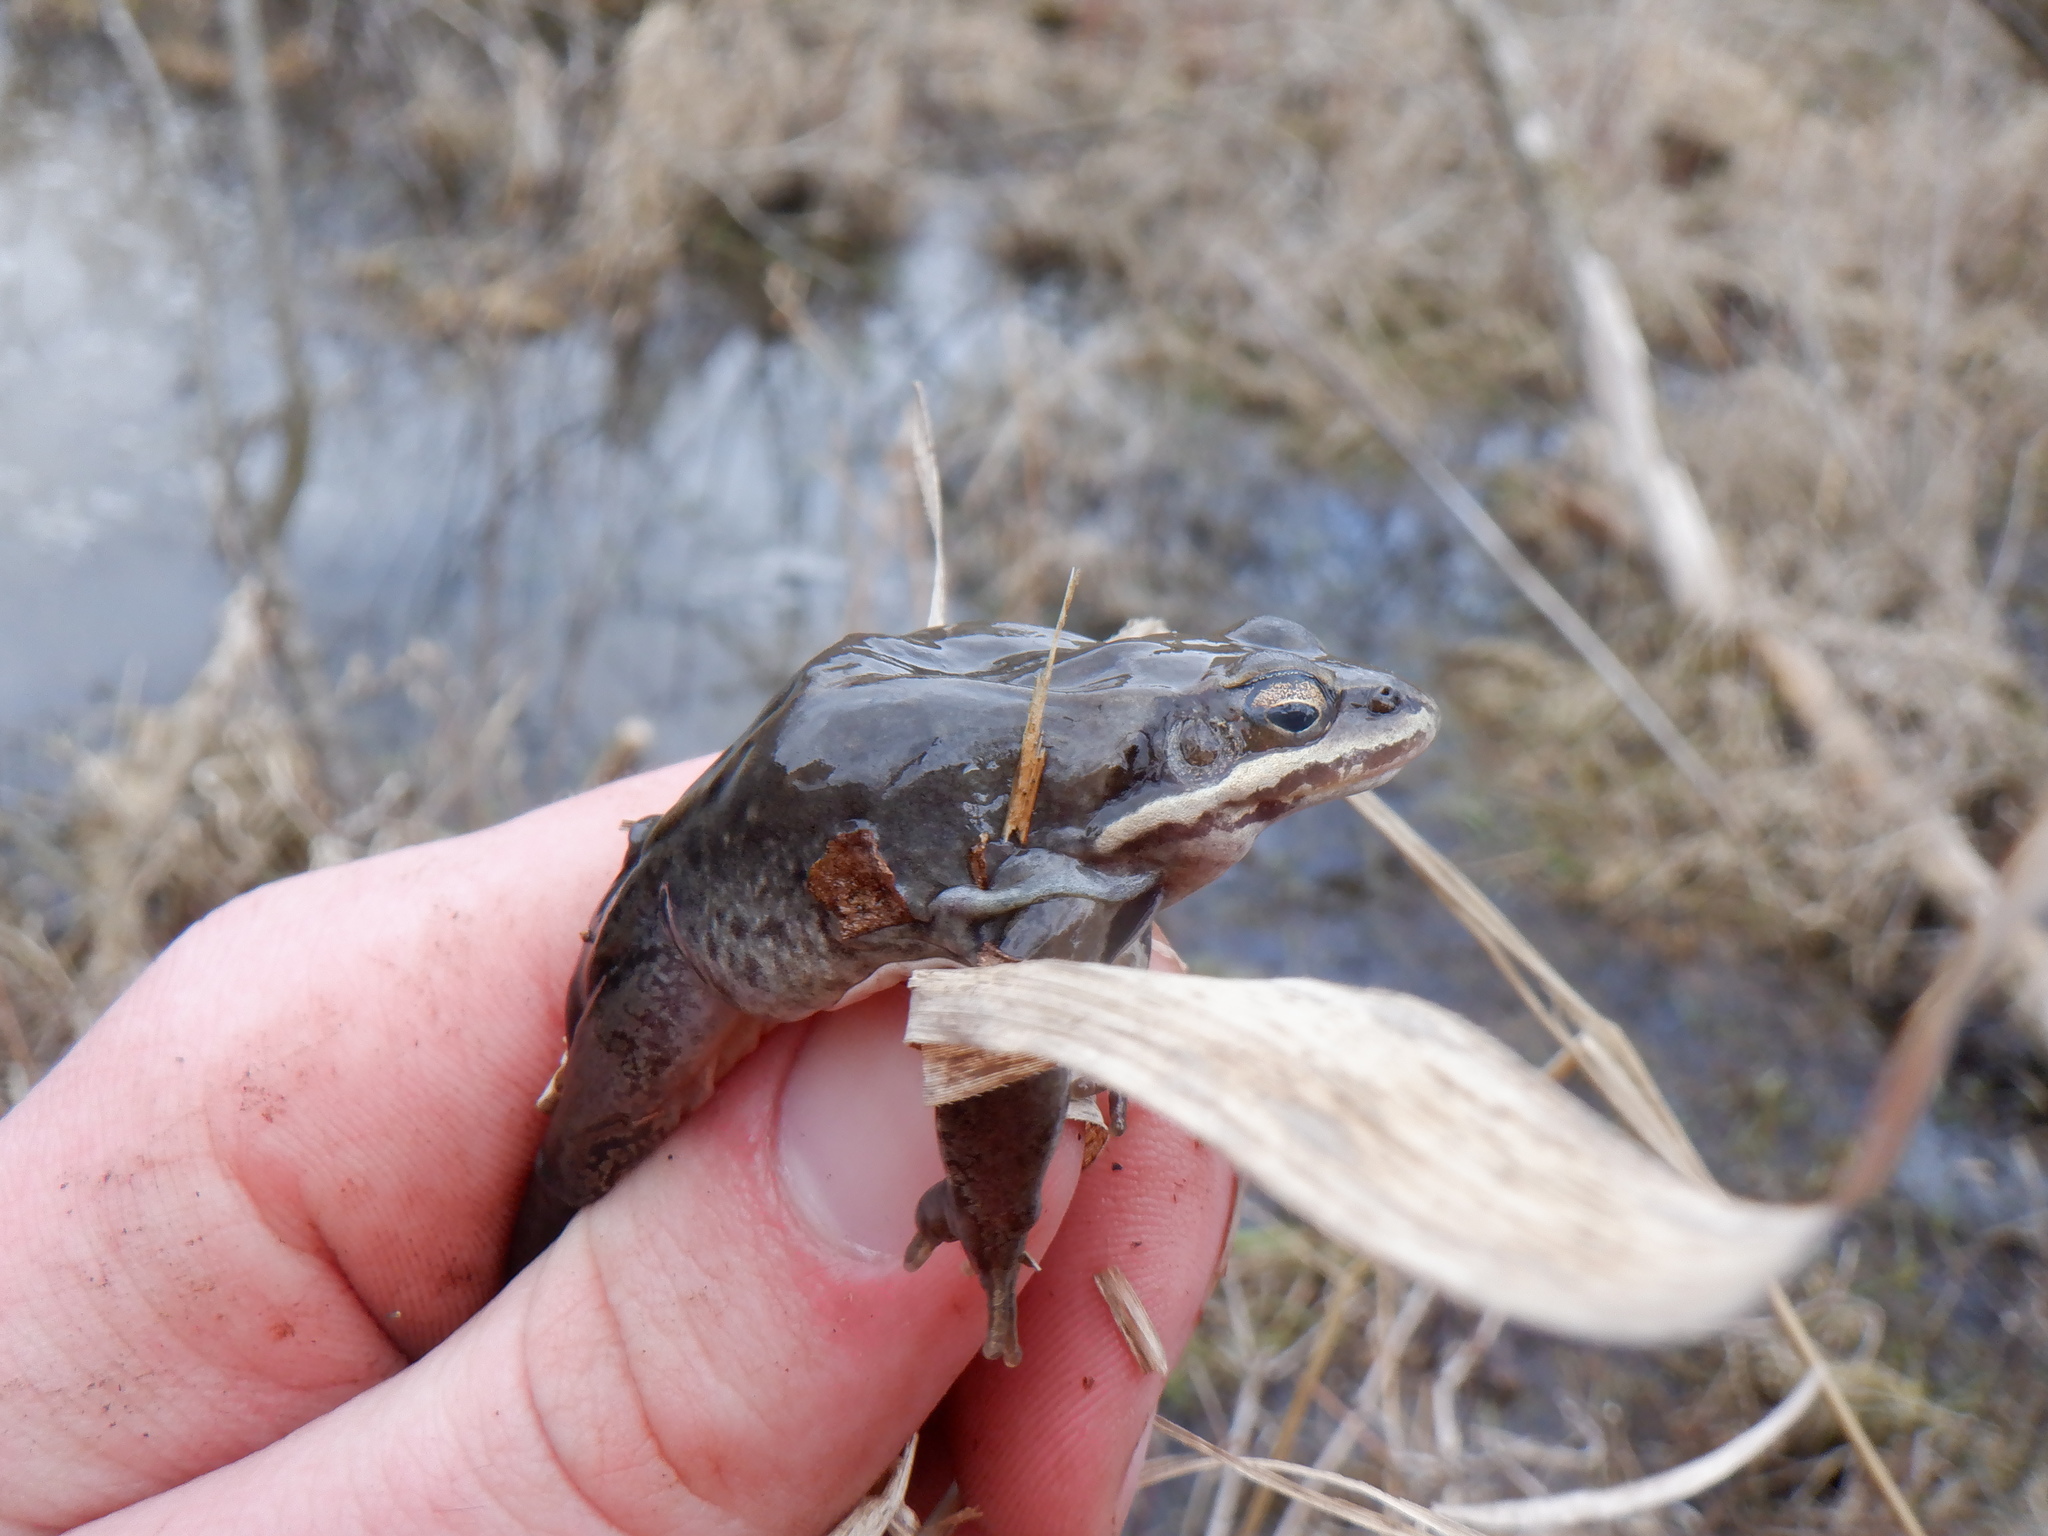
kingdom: Animalia
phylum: Chordata
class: Amphibia
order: Anura
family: Ranidae
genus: Lithobates
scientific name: Lithobates sylvaticus
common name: Wood frog
